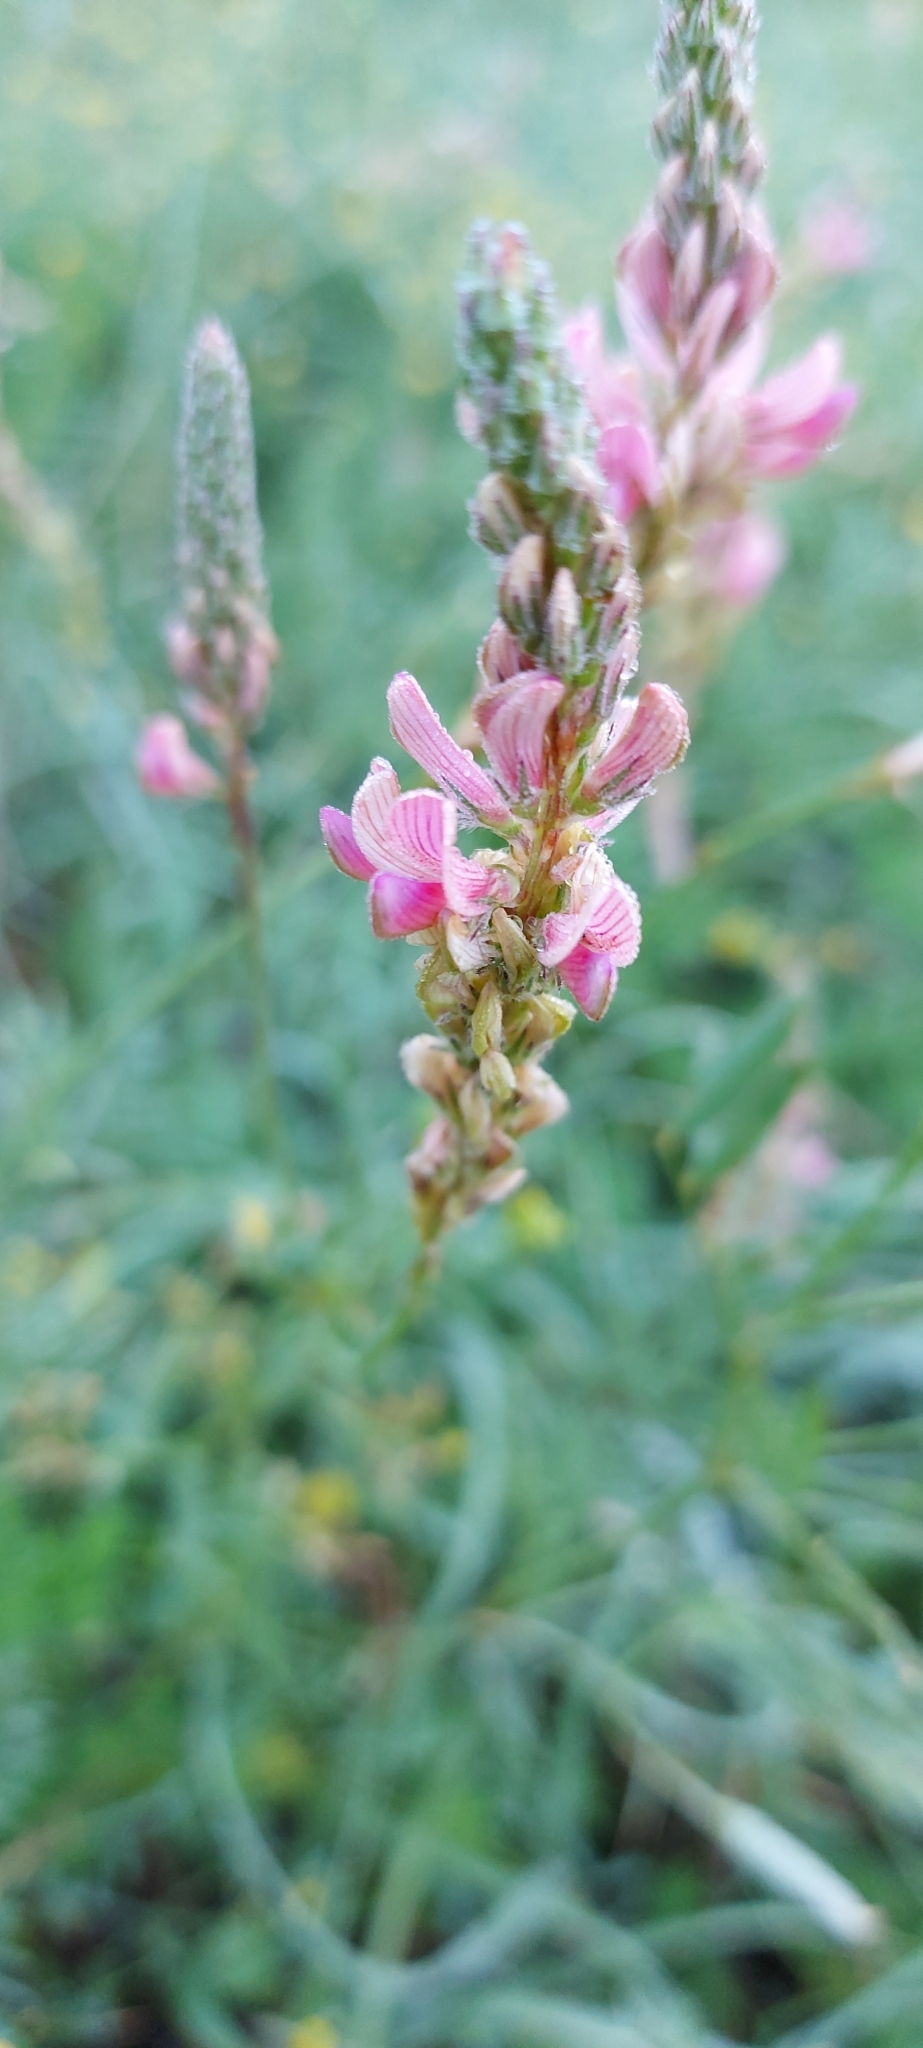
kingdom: Plantae
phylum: Tracheophyta
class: Magnoliopsida
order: Fabales
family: Fabaceae
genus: Onobrychis
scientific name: Onobrychis viciifolia
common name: Sainfoin
